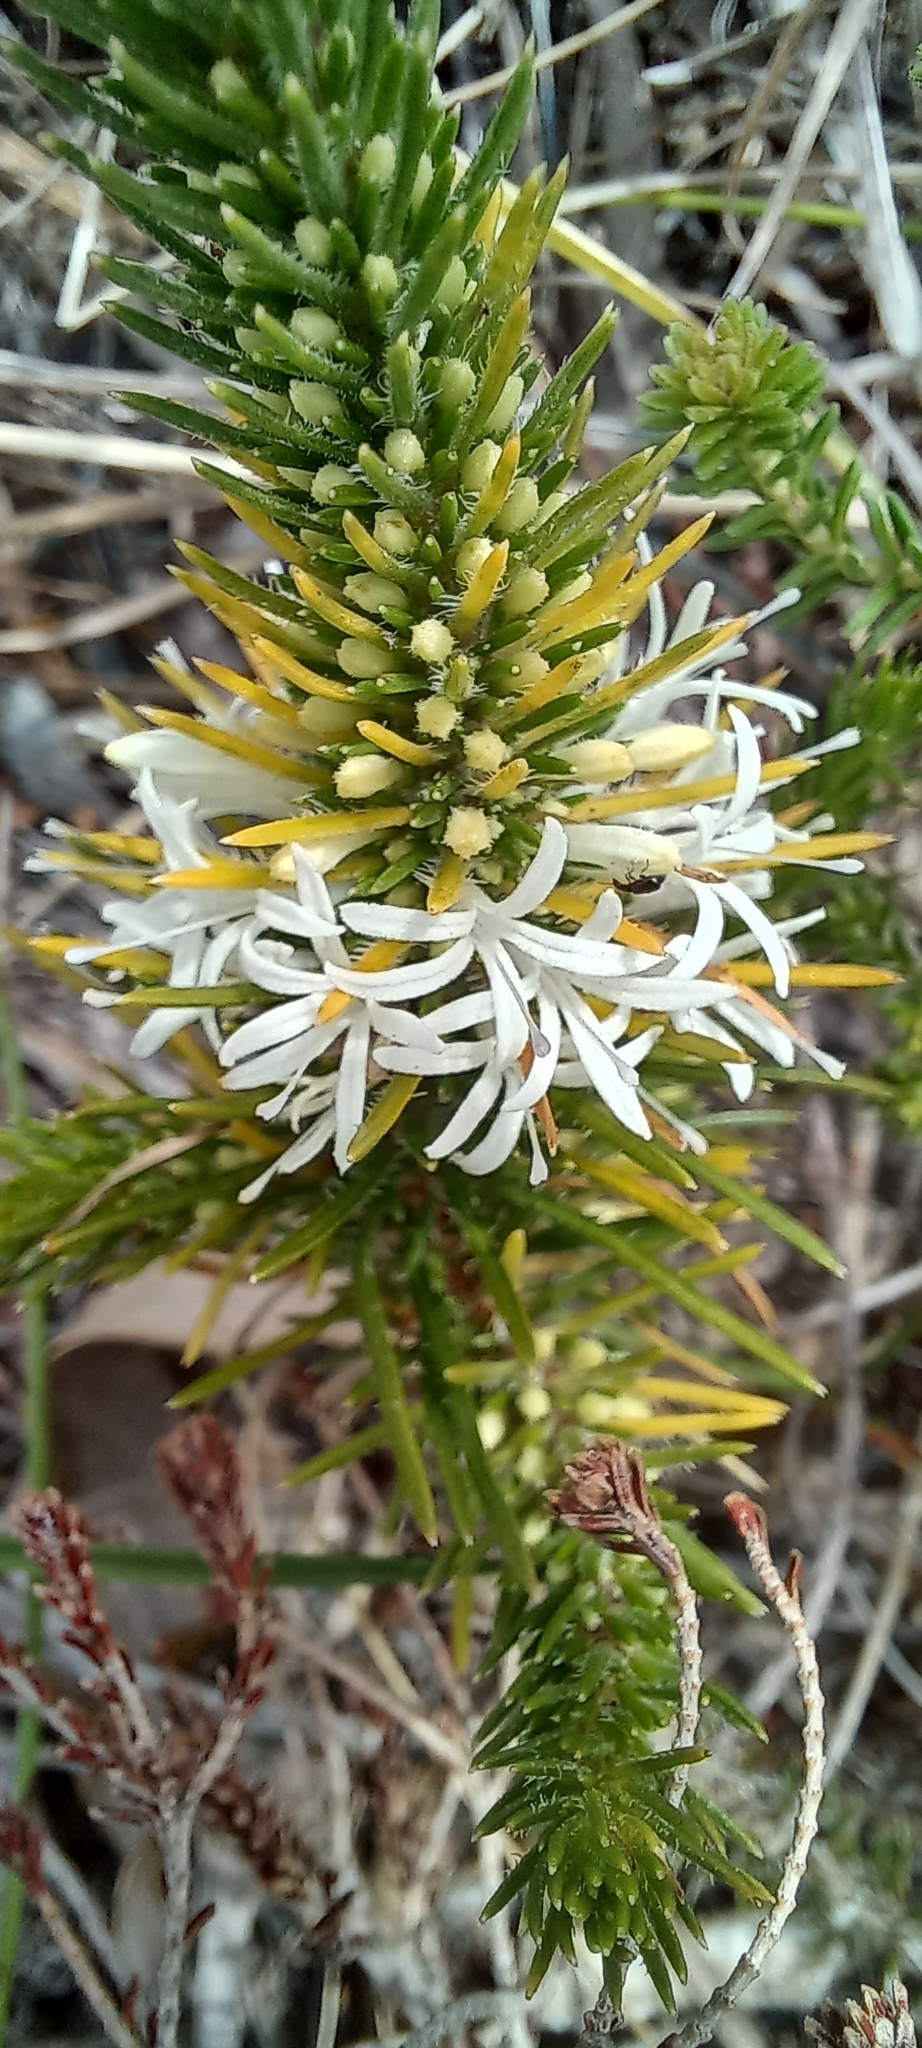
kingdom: Plantae
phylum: Tracheophyta
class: Magnoliopsida
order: Asterales
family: Campanulaceae
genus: Merciera
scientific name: Merciera leptoloba
